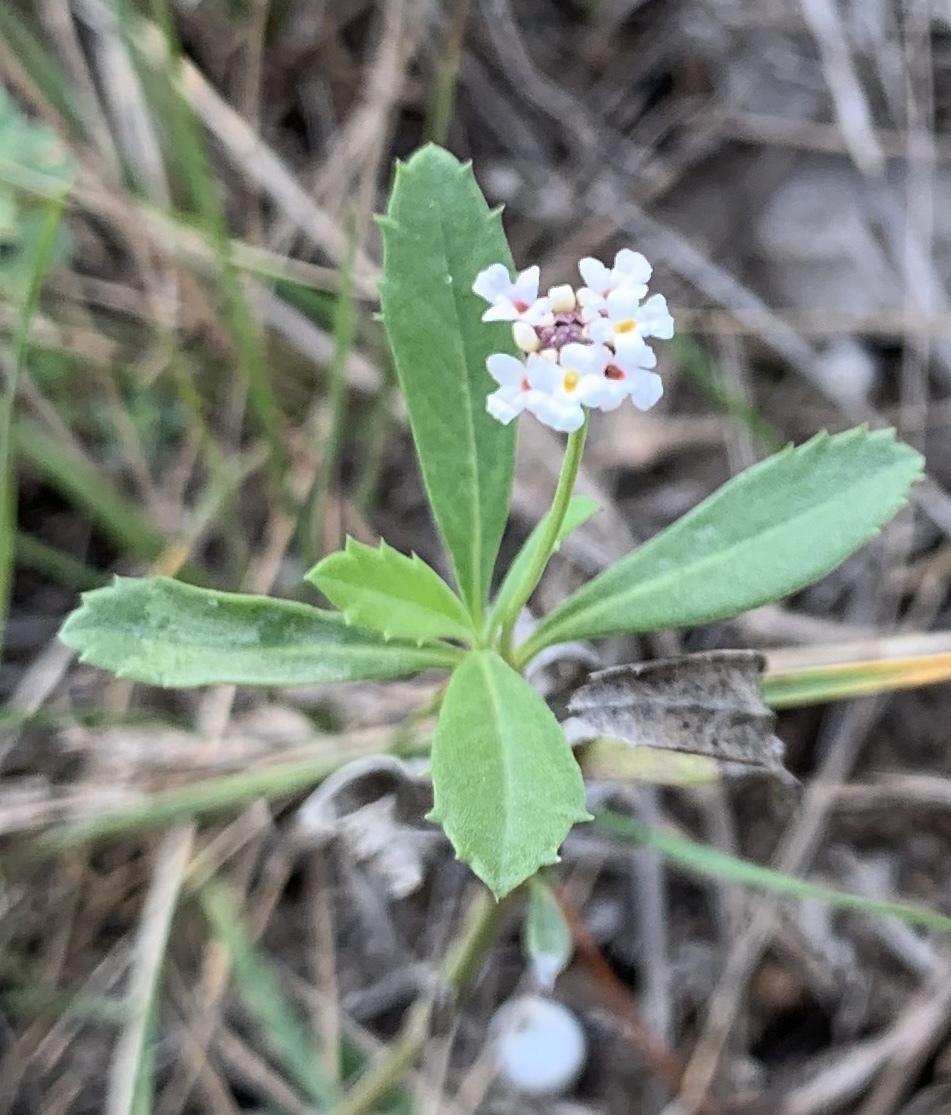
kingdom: Plantae
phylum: Tracheophyta
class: Magnoliopsida
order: Lamiales
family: Verbenaceae
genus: Phyla
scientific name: Phyla nodiflora
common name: Frogfruit
